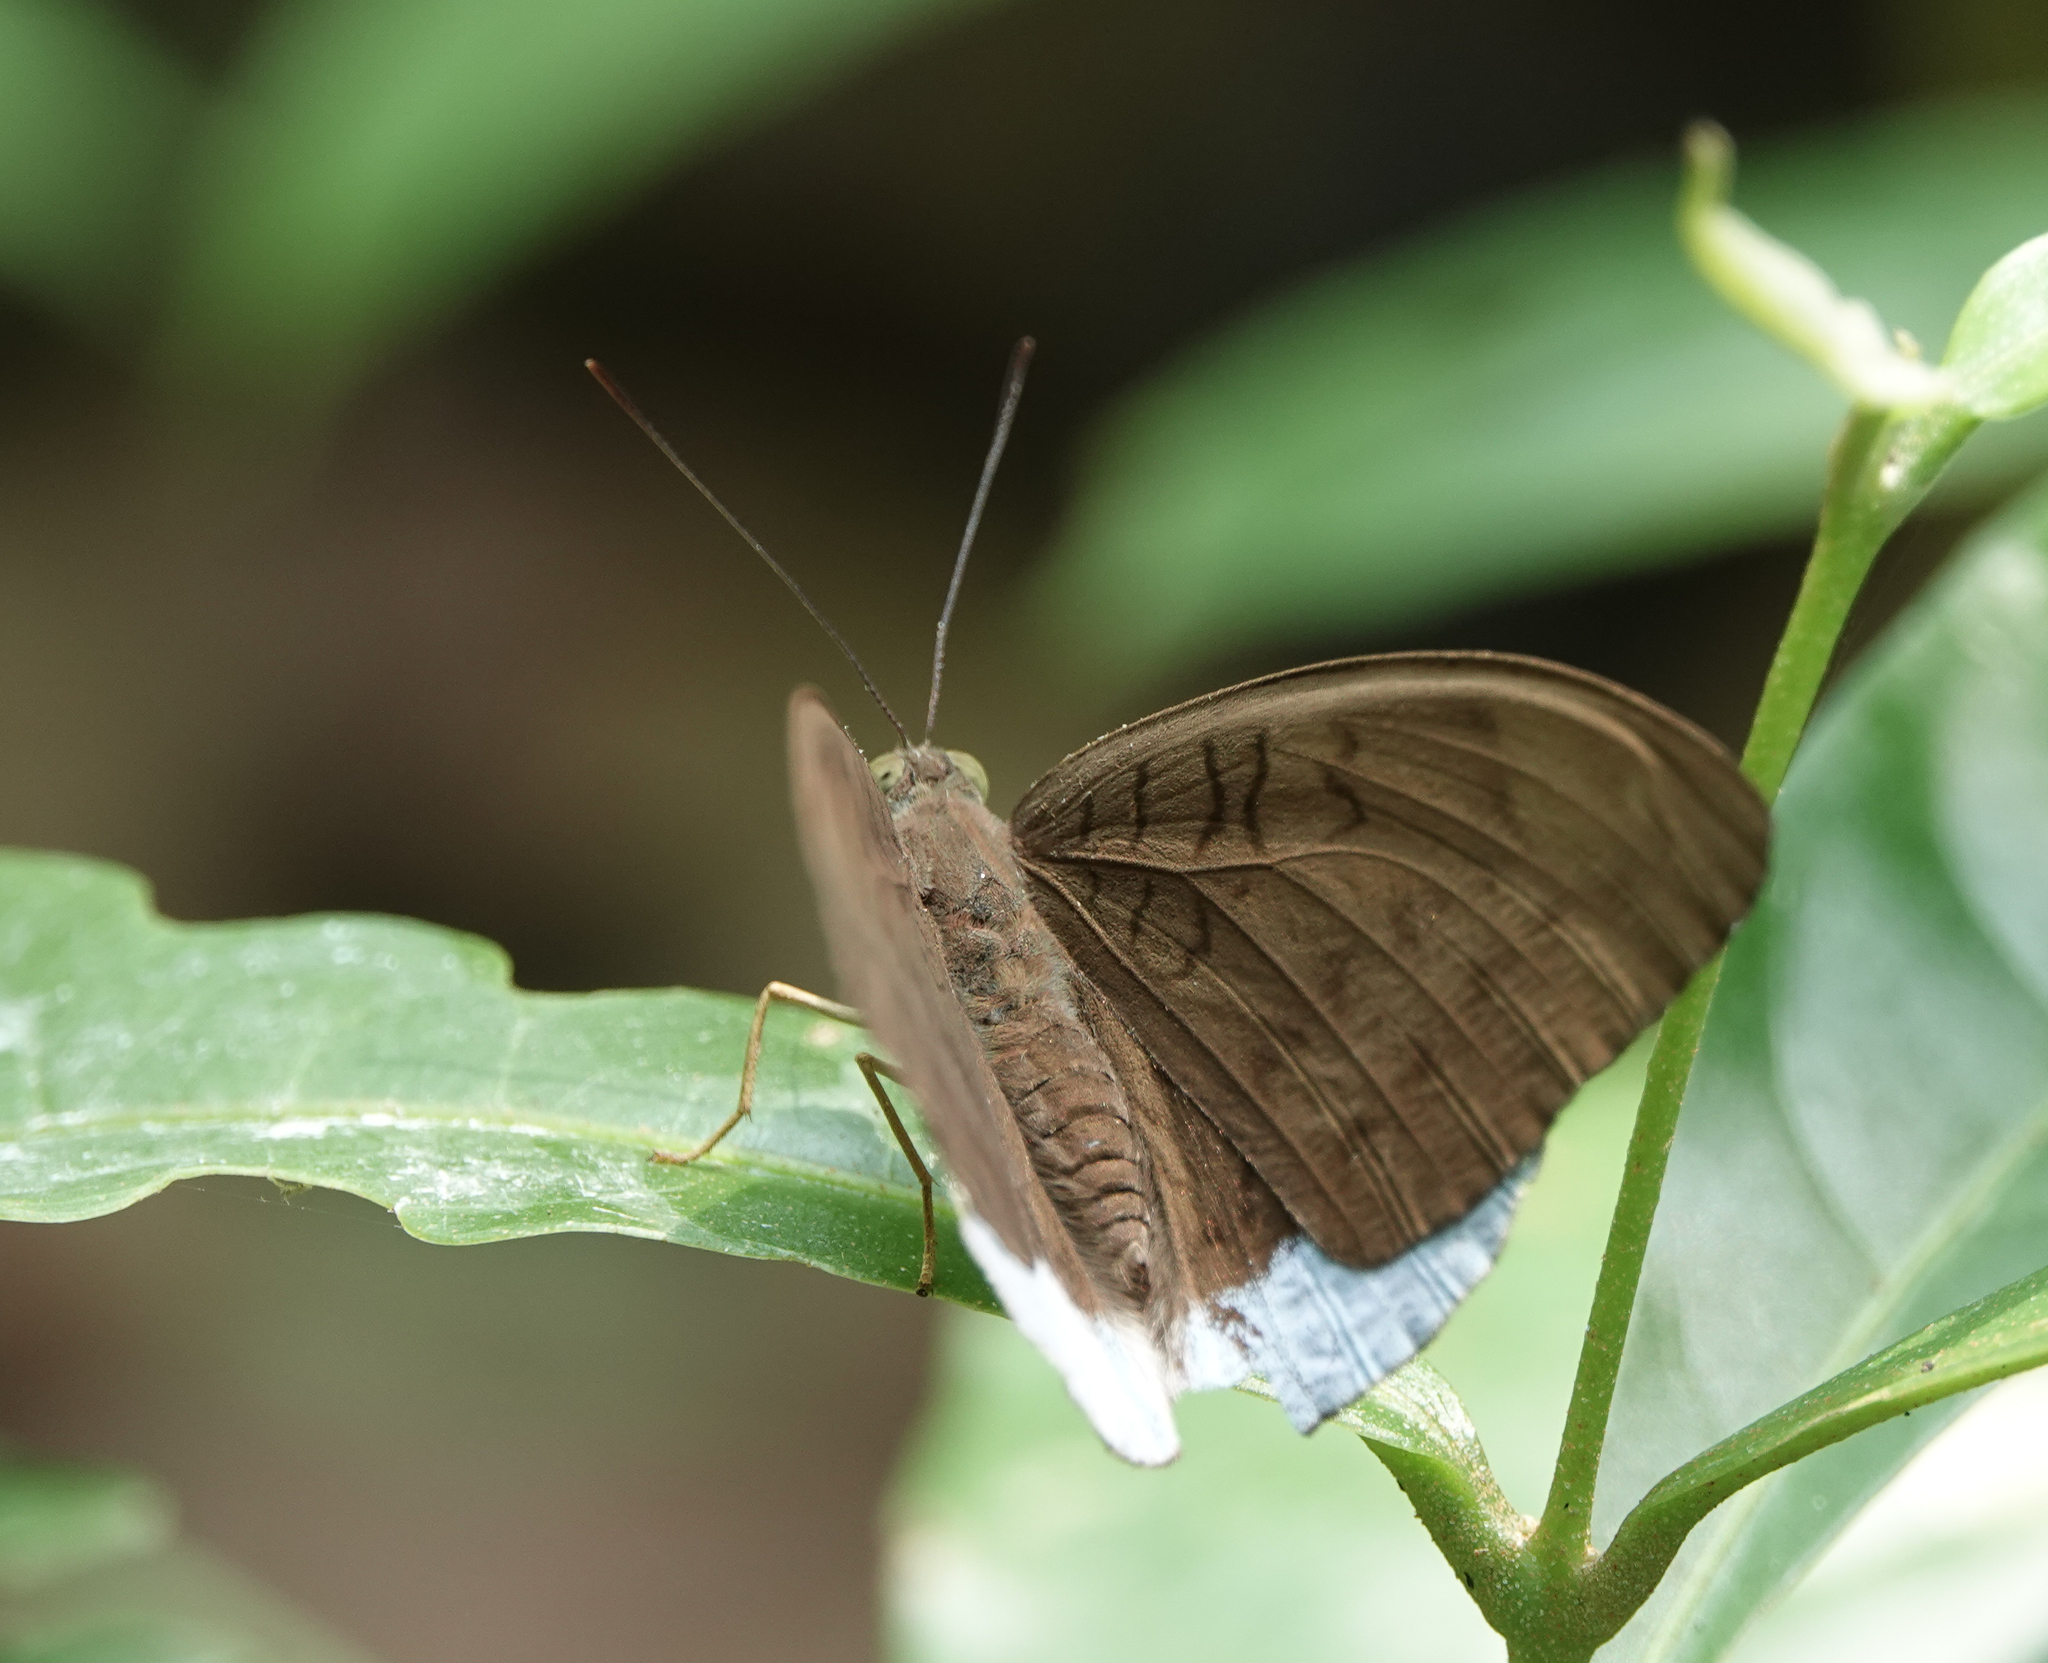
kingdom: Animalia
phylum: Arthropoda
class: Insecta
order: Lepidoptera
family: Nymphalidae
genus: Tanaecia
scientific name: Tanaecia julii
